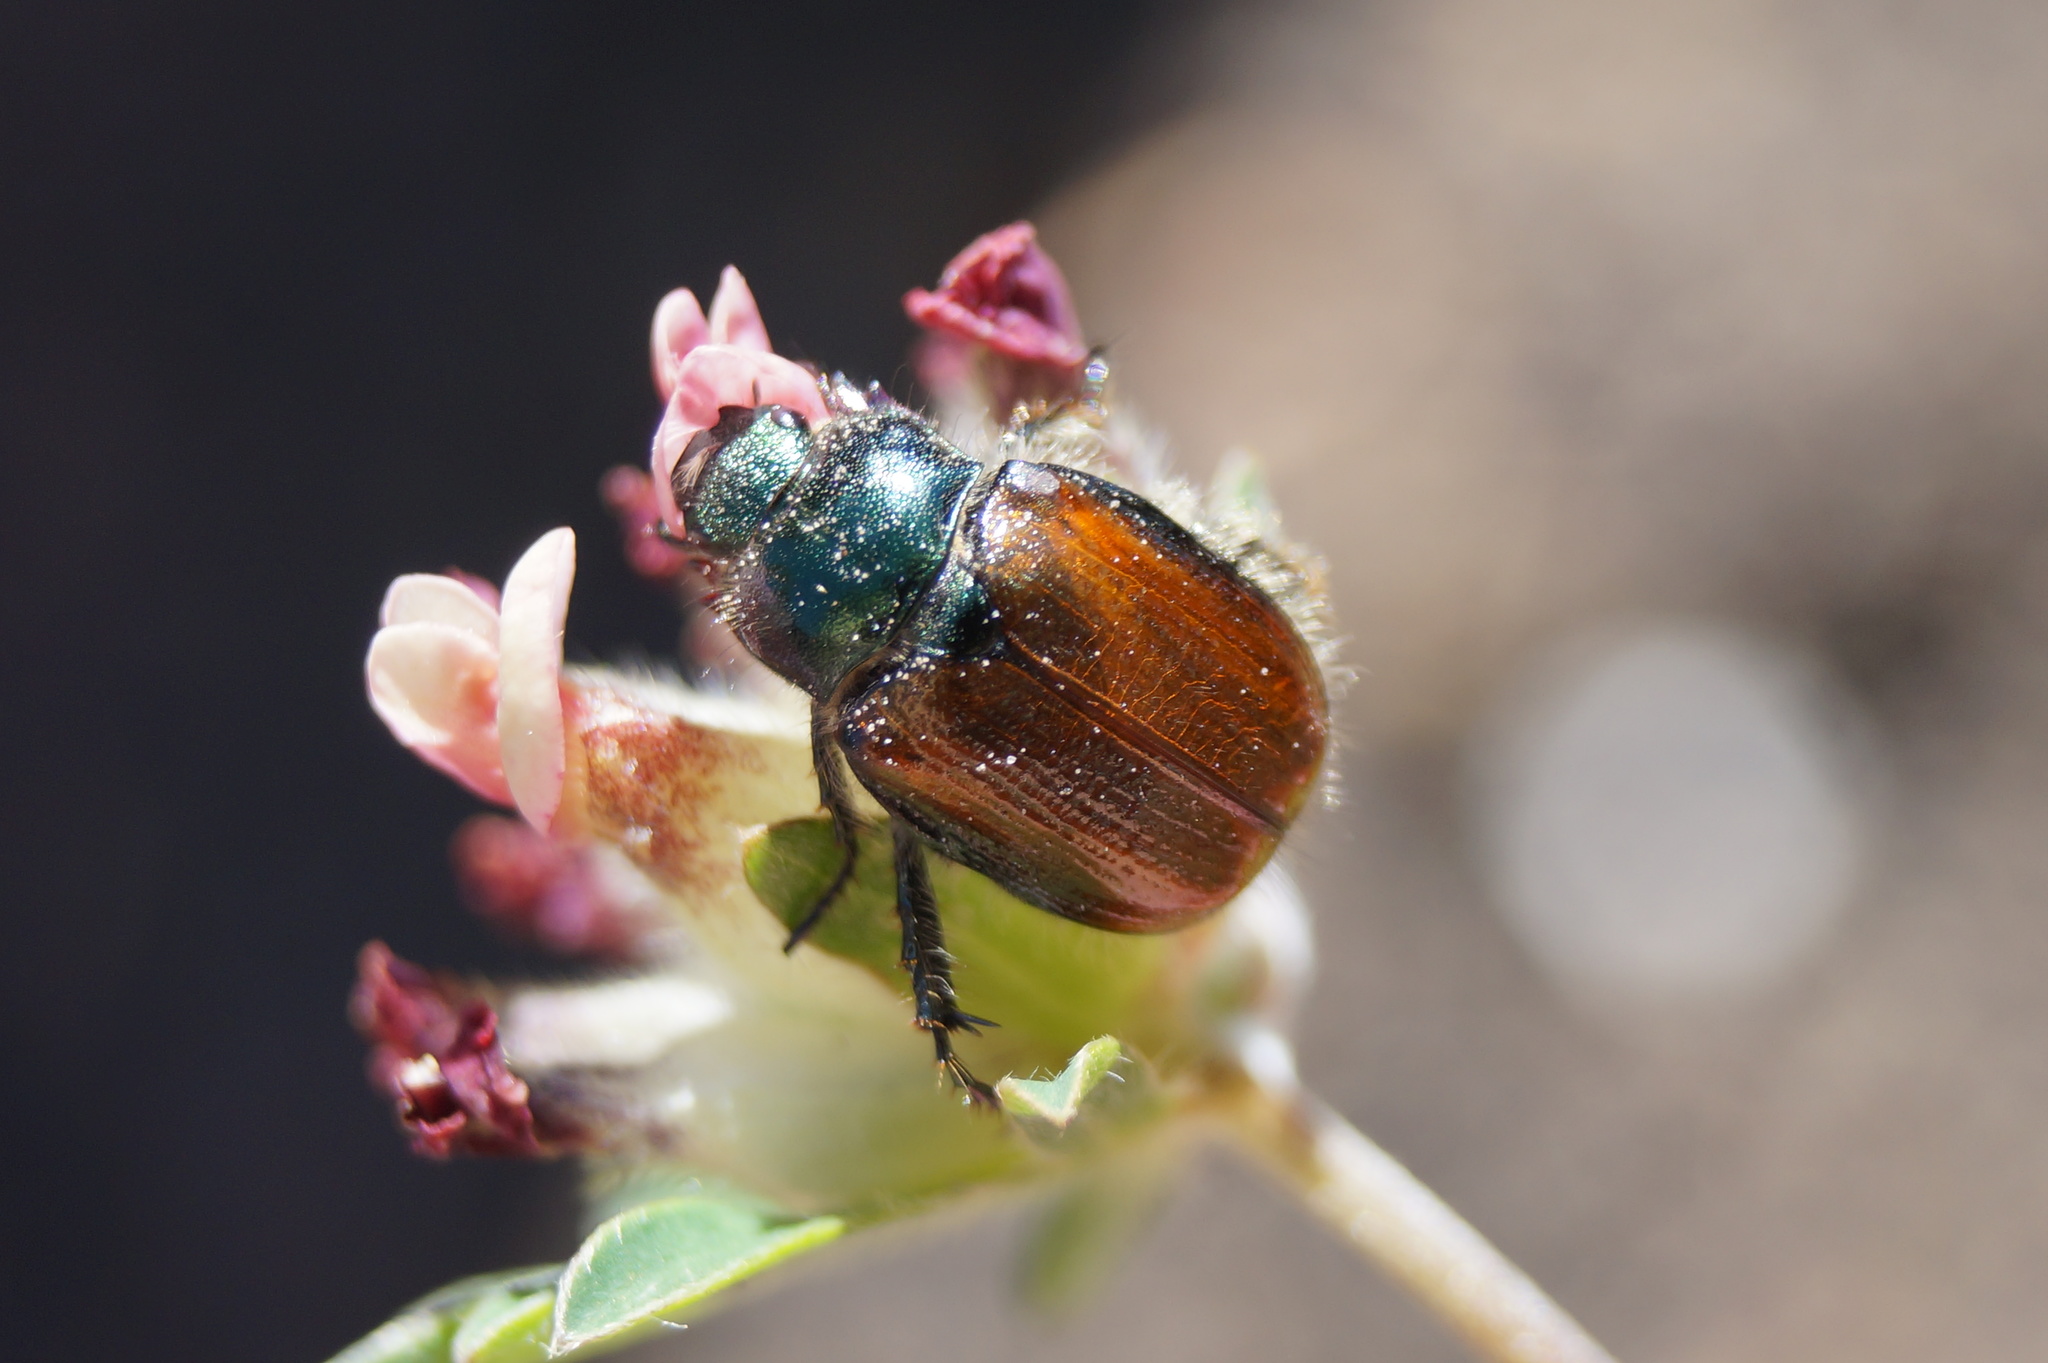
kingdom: Animalia
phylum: Arthropoda
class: Insecta
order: Coleoptera
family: Scarabaeidae
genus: Phyllopertha
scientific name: Phyllopertha horticola
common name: Garden chafer
